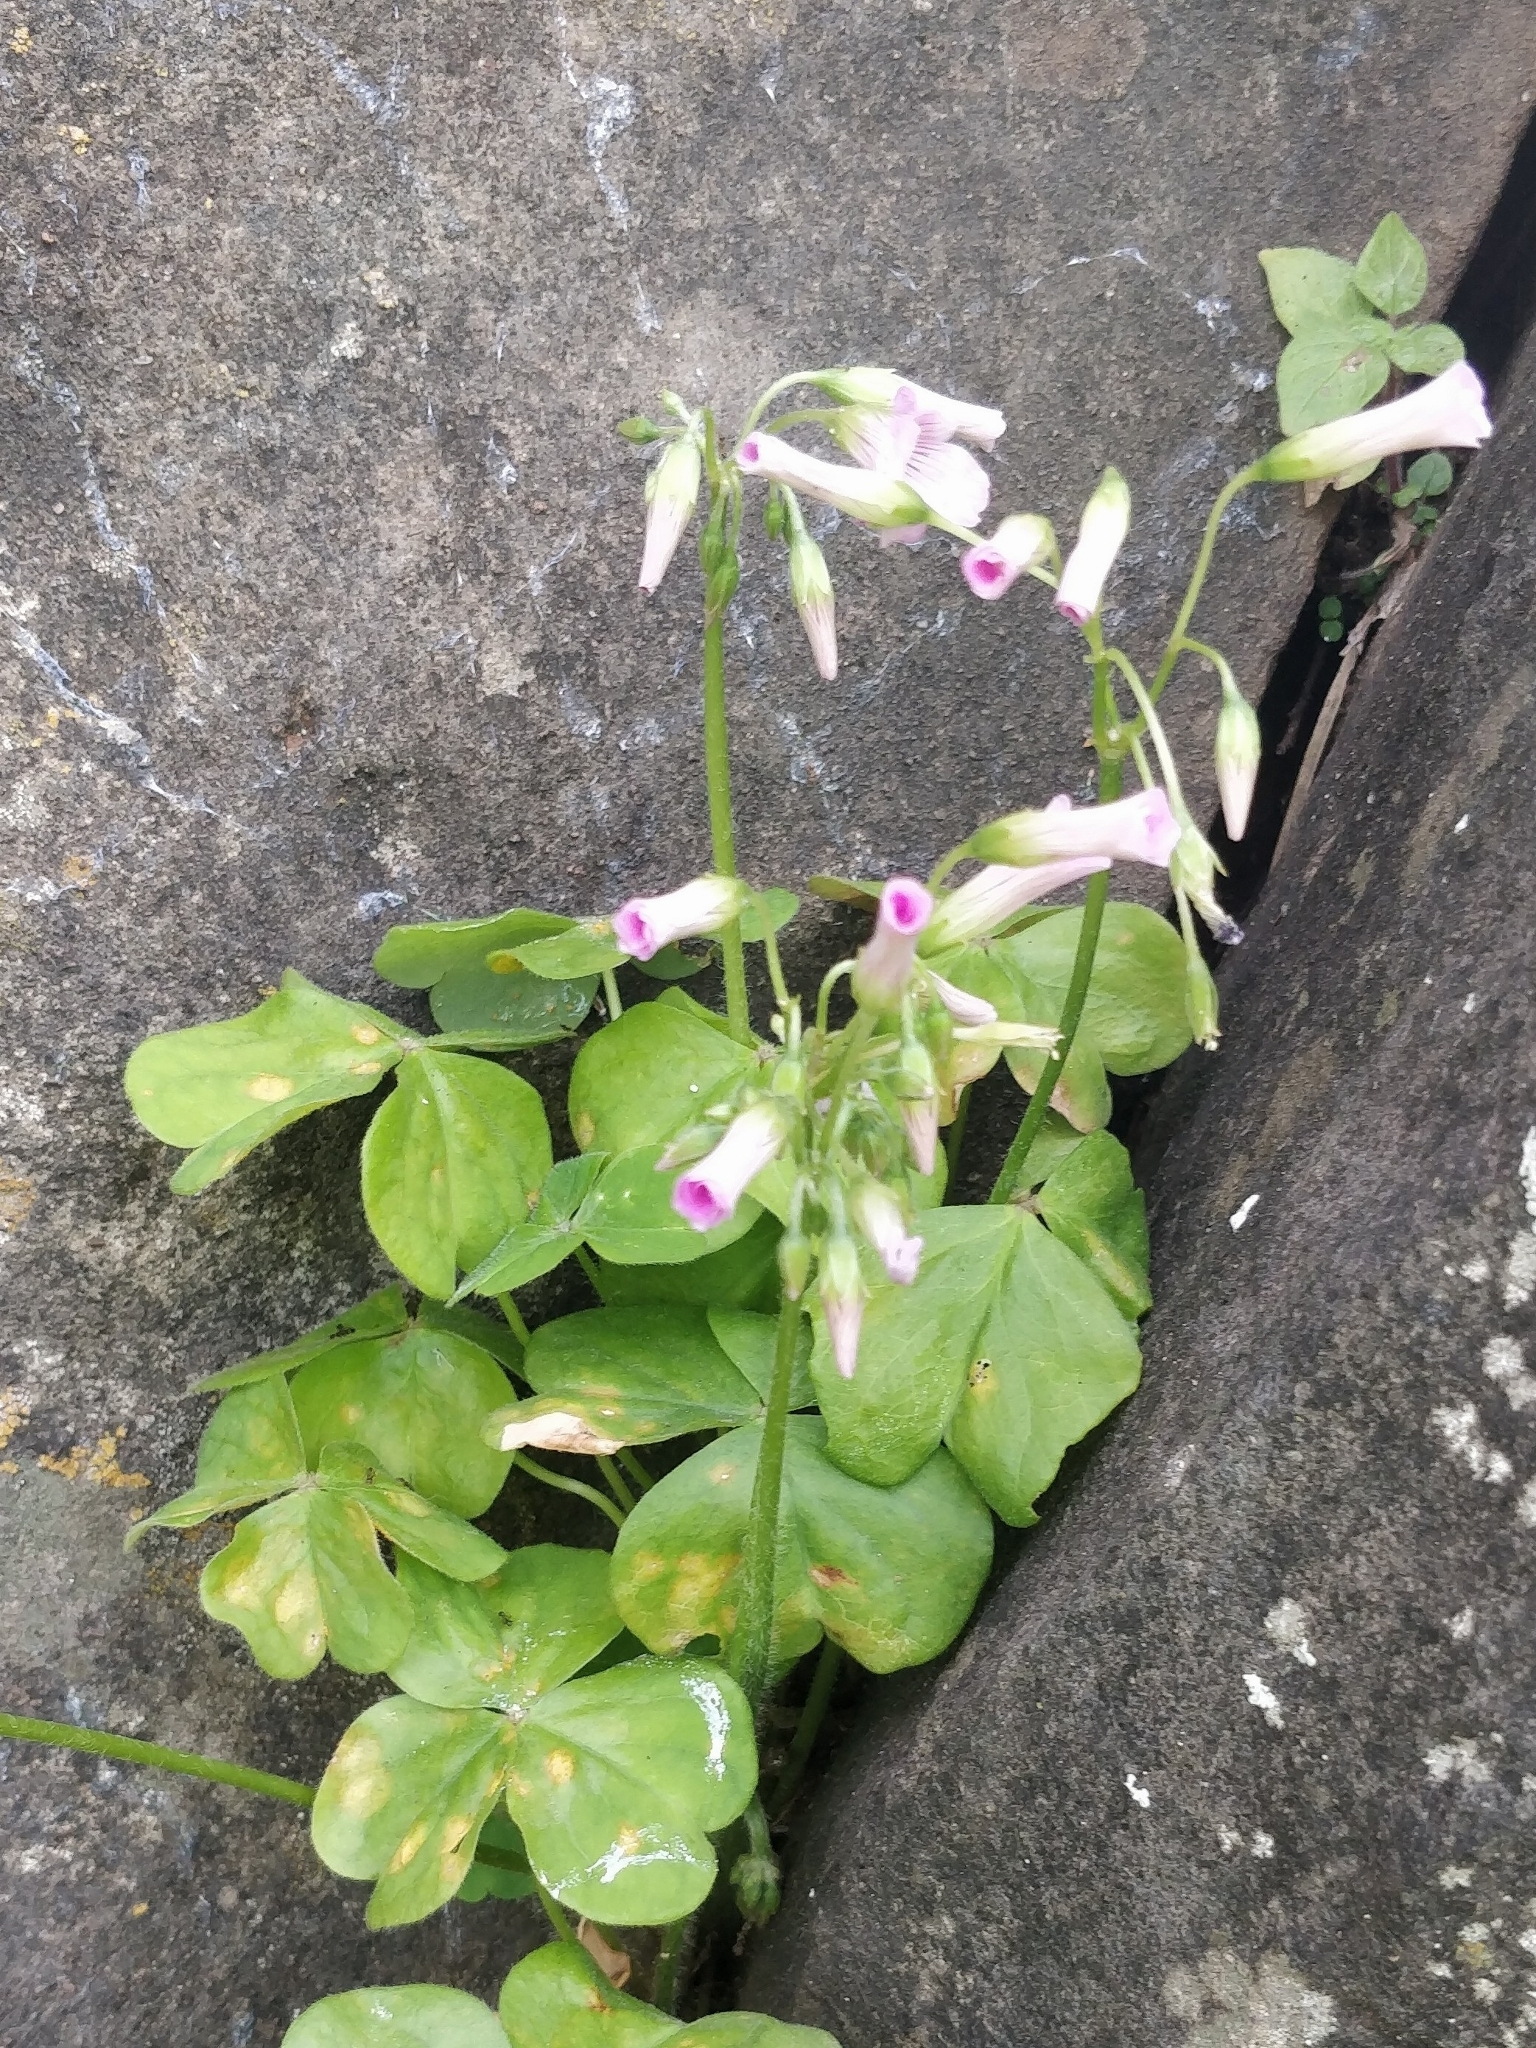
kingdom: Plantae
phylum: Tracheophyta
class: Magnoliopsida
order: Oxalidales
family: Oxalidaceae
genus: Oxalis
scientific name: Oxalis debilis
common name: Large-flowered pink-sorrel
